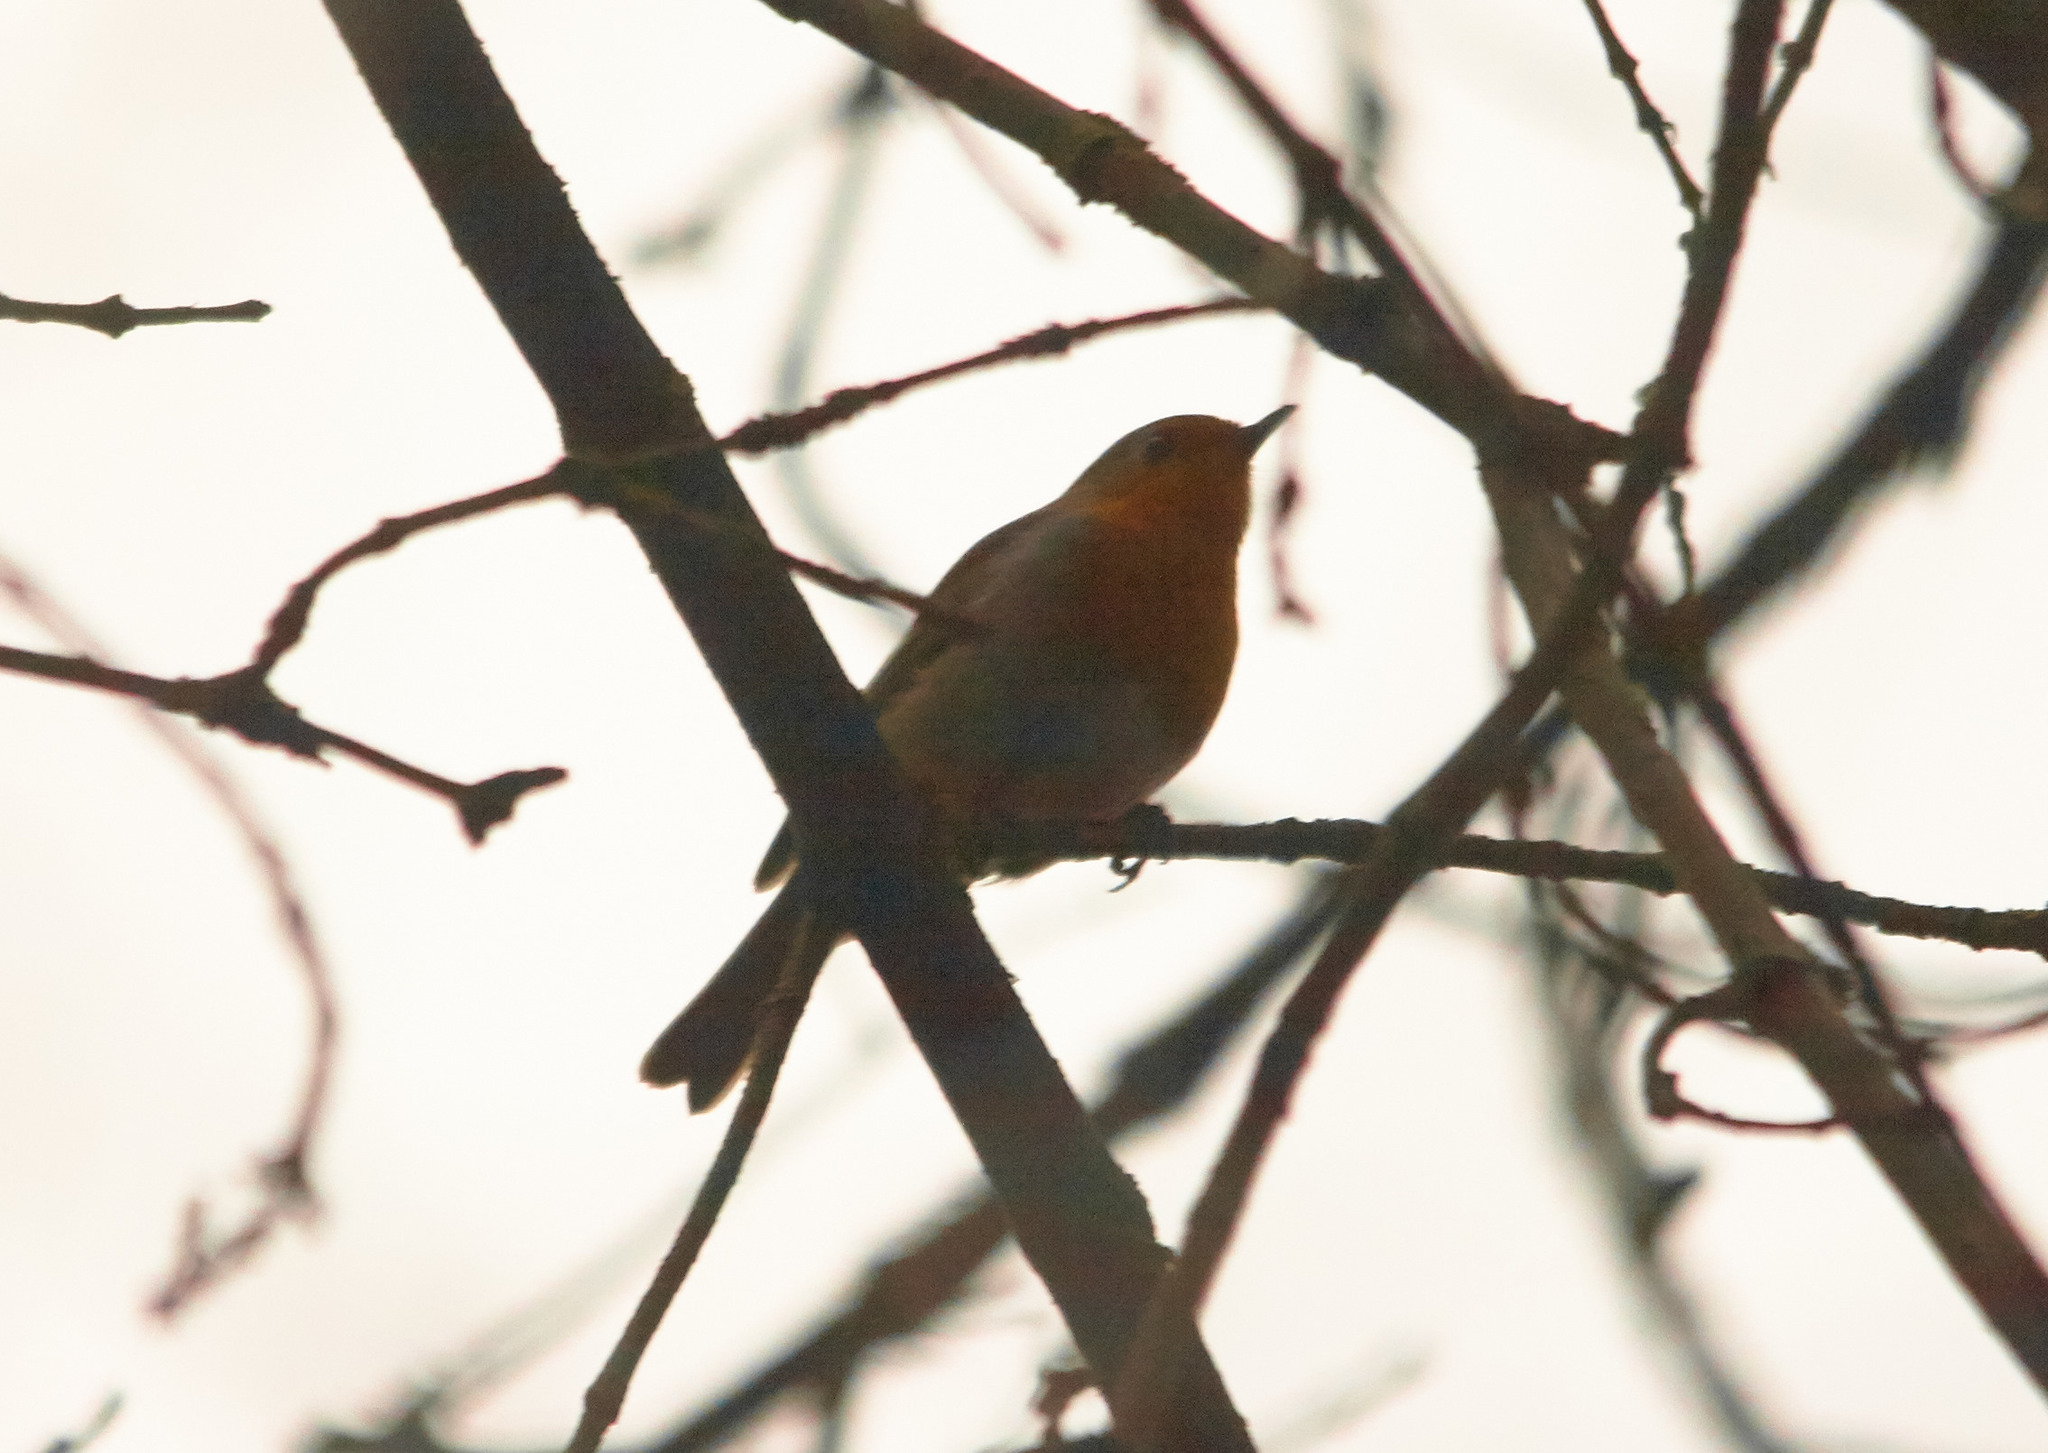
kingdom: Animalia
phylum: Chordata
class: Aves
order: Passeriformes
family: Muscicapidae
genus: Erithacus
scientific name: Erithacus rubecula
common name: European robin
